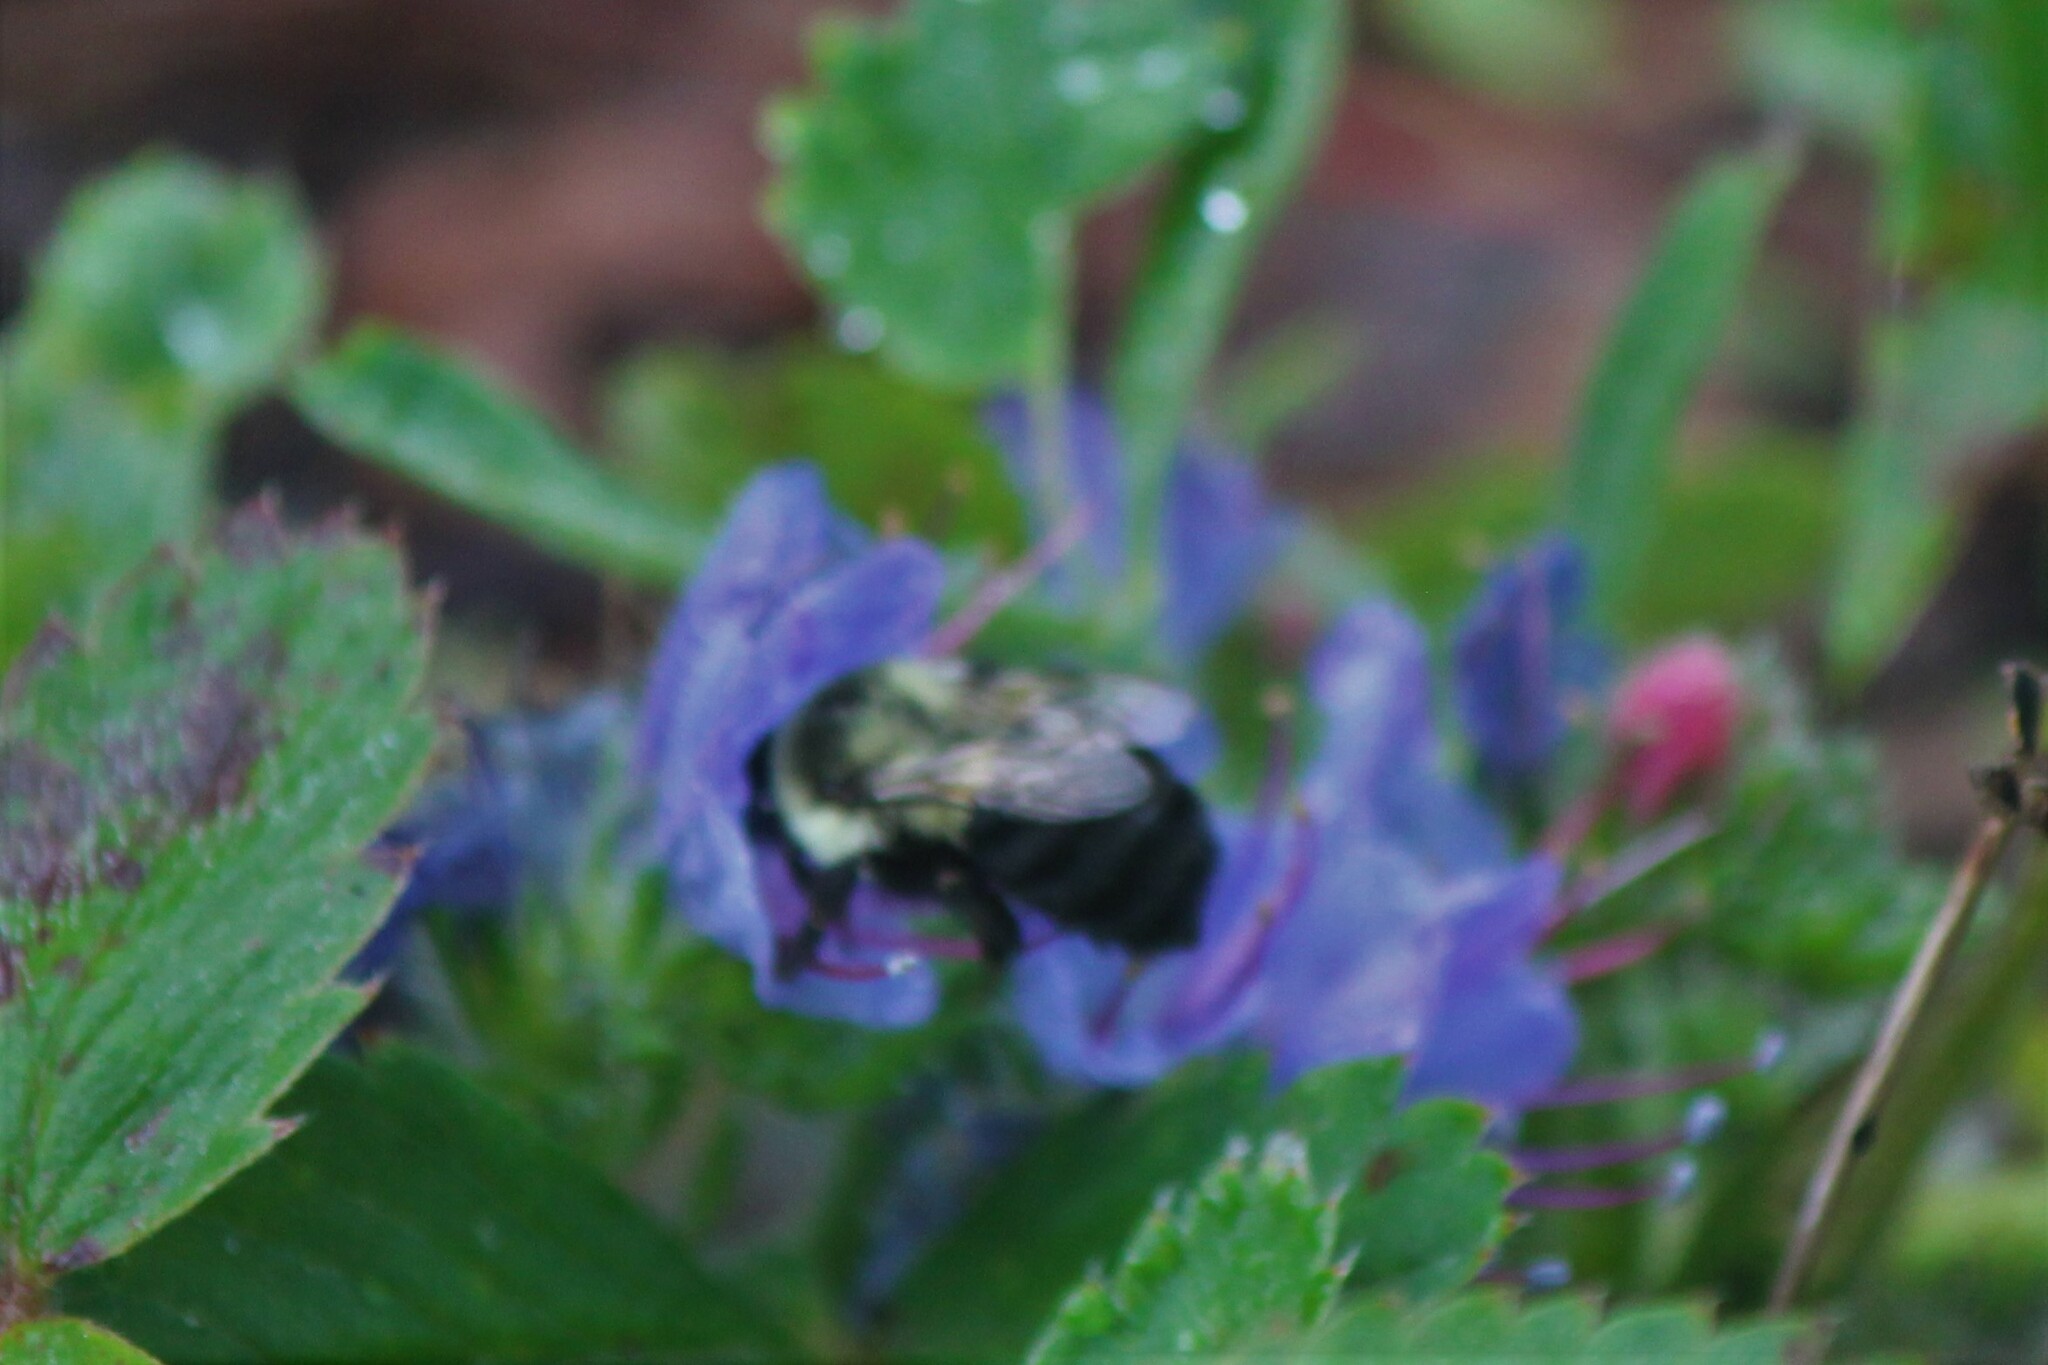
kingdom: Animalia
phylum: Arthropoda
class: Insecta
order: Hymenoptera
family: Apidae
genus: Bombus
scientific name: Bombus impatiens
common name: Common eastern bumble bee
